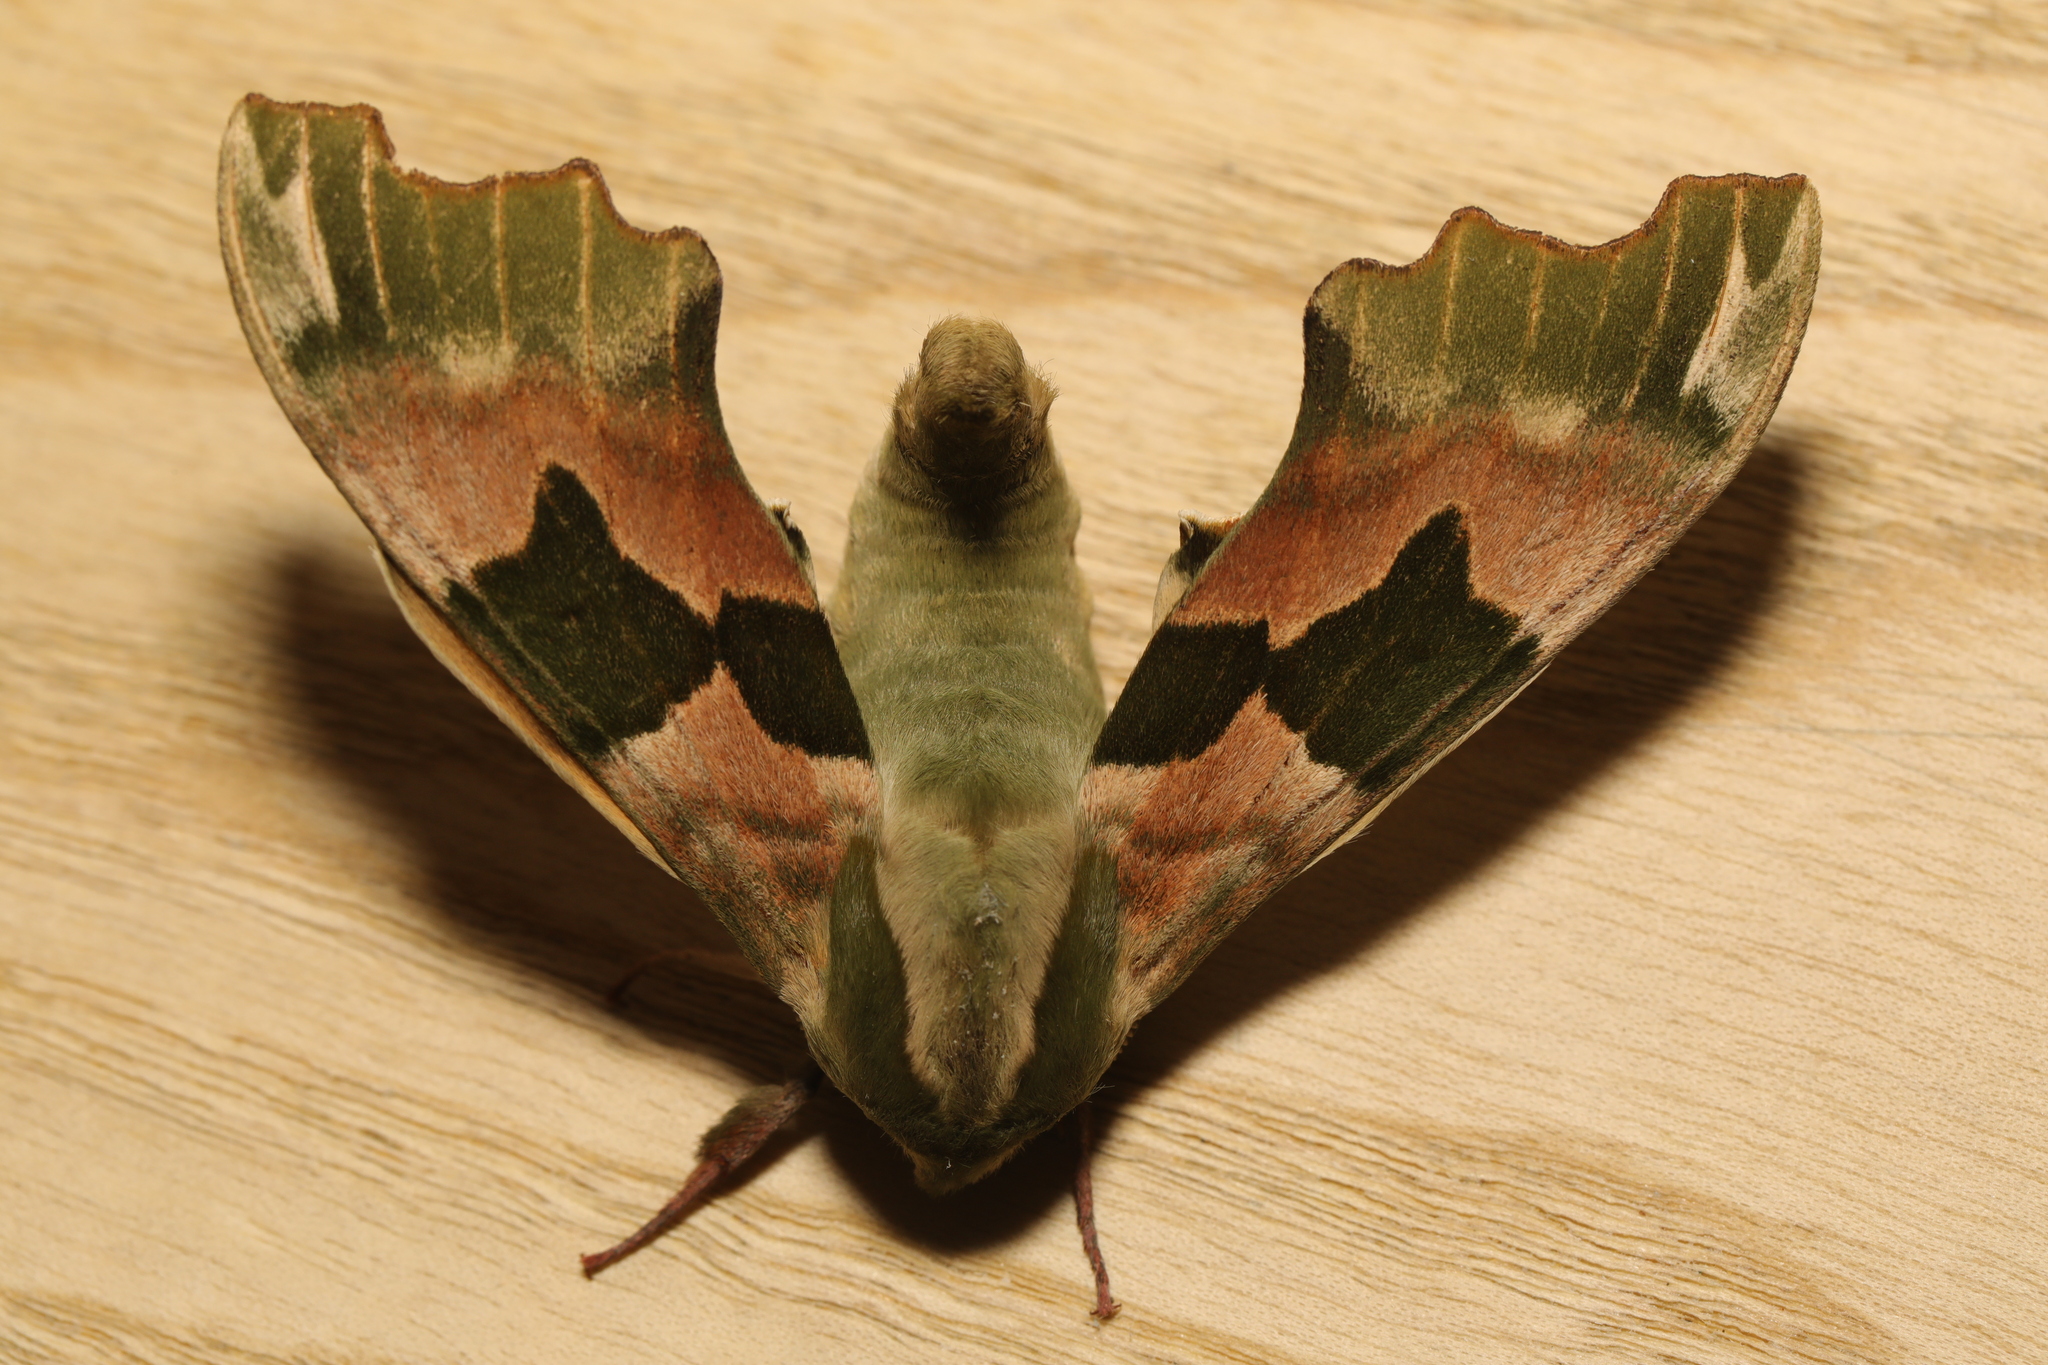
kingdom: Animalia
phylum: Arthropoda
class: Insecta
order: Lepidoptera
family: Sphingidae
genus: Mimas
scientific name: Mimas tiliae
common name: Lime hawk-moth
